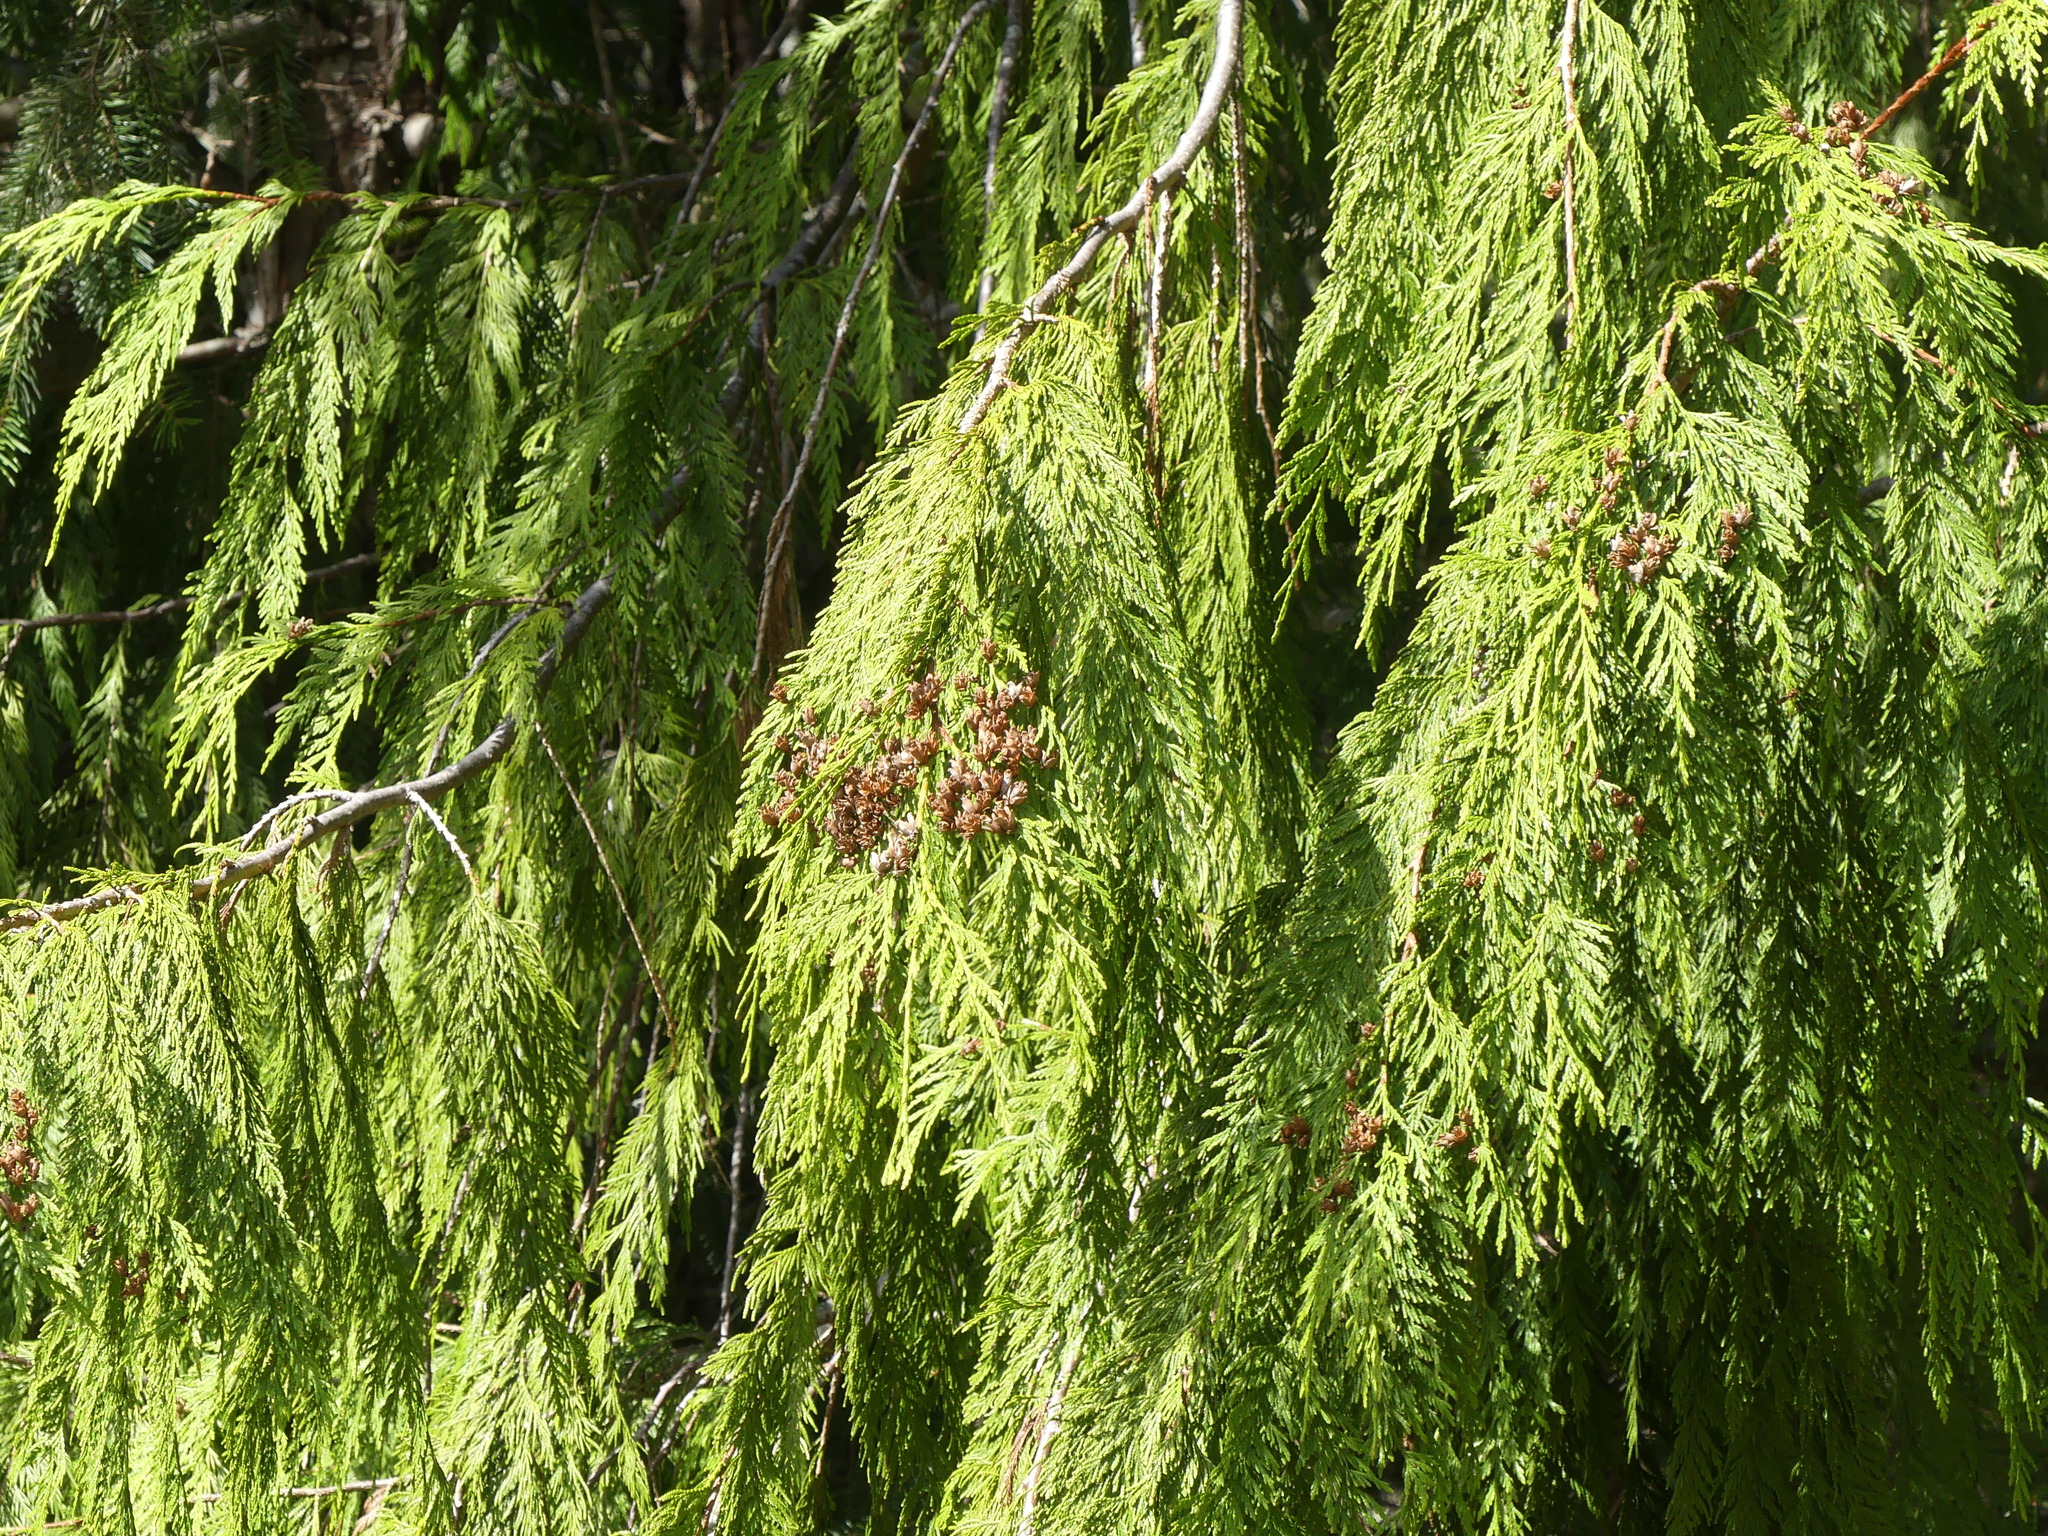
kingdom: Plantae
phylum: Tracheophyta
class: Pinopsida
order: Pinales
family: Cupressaceae
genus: Thuja
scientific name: Thuja plicata
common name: Western red-cedar
